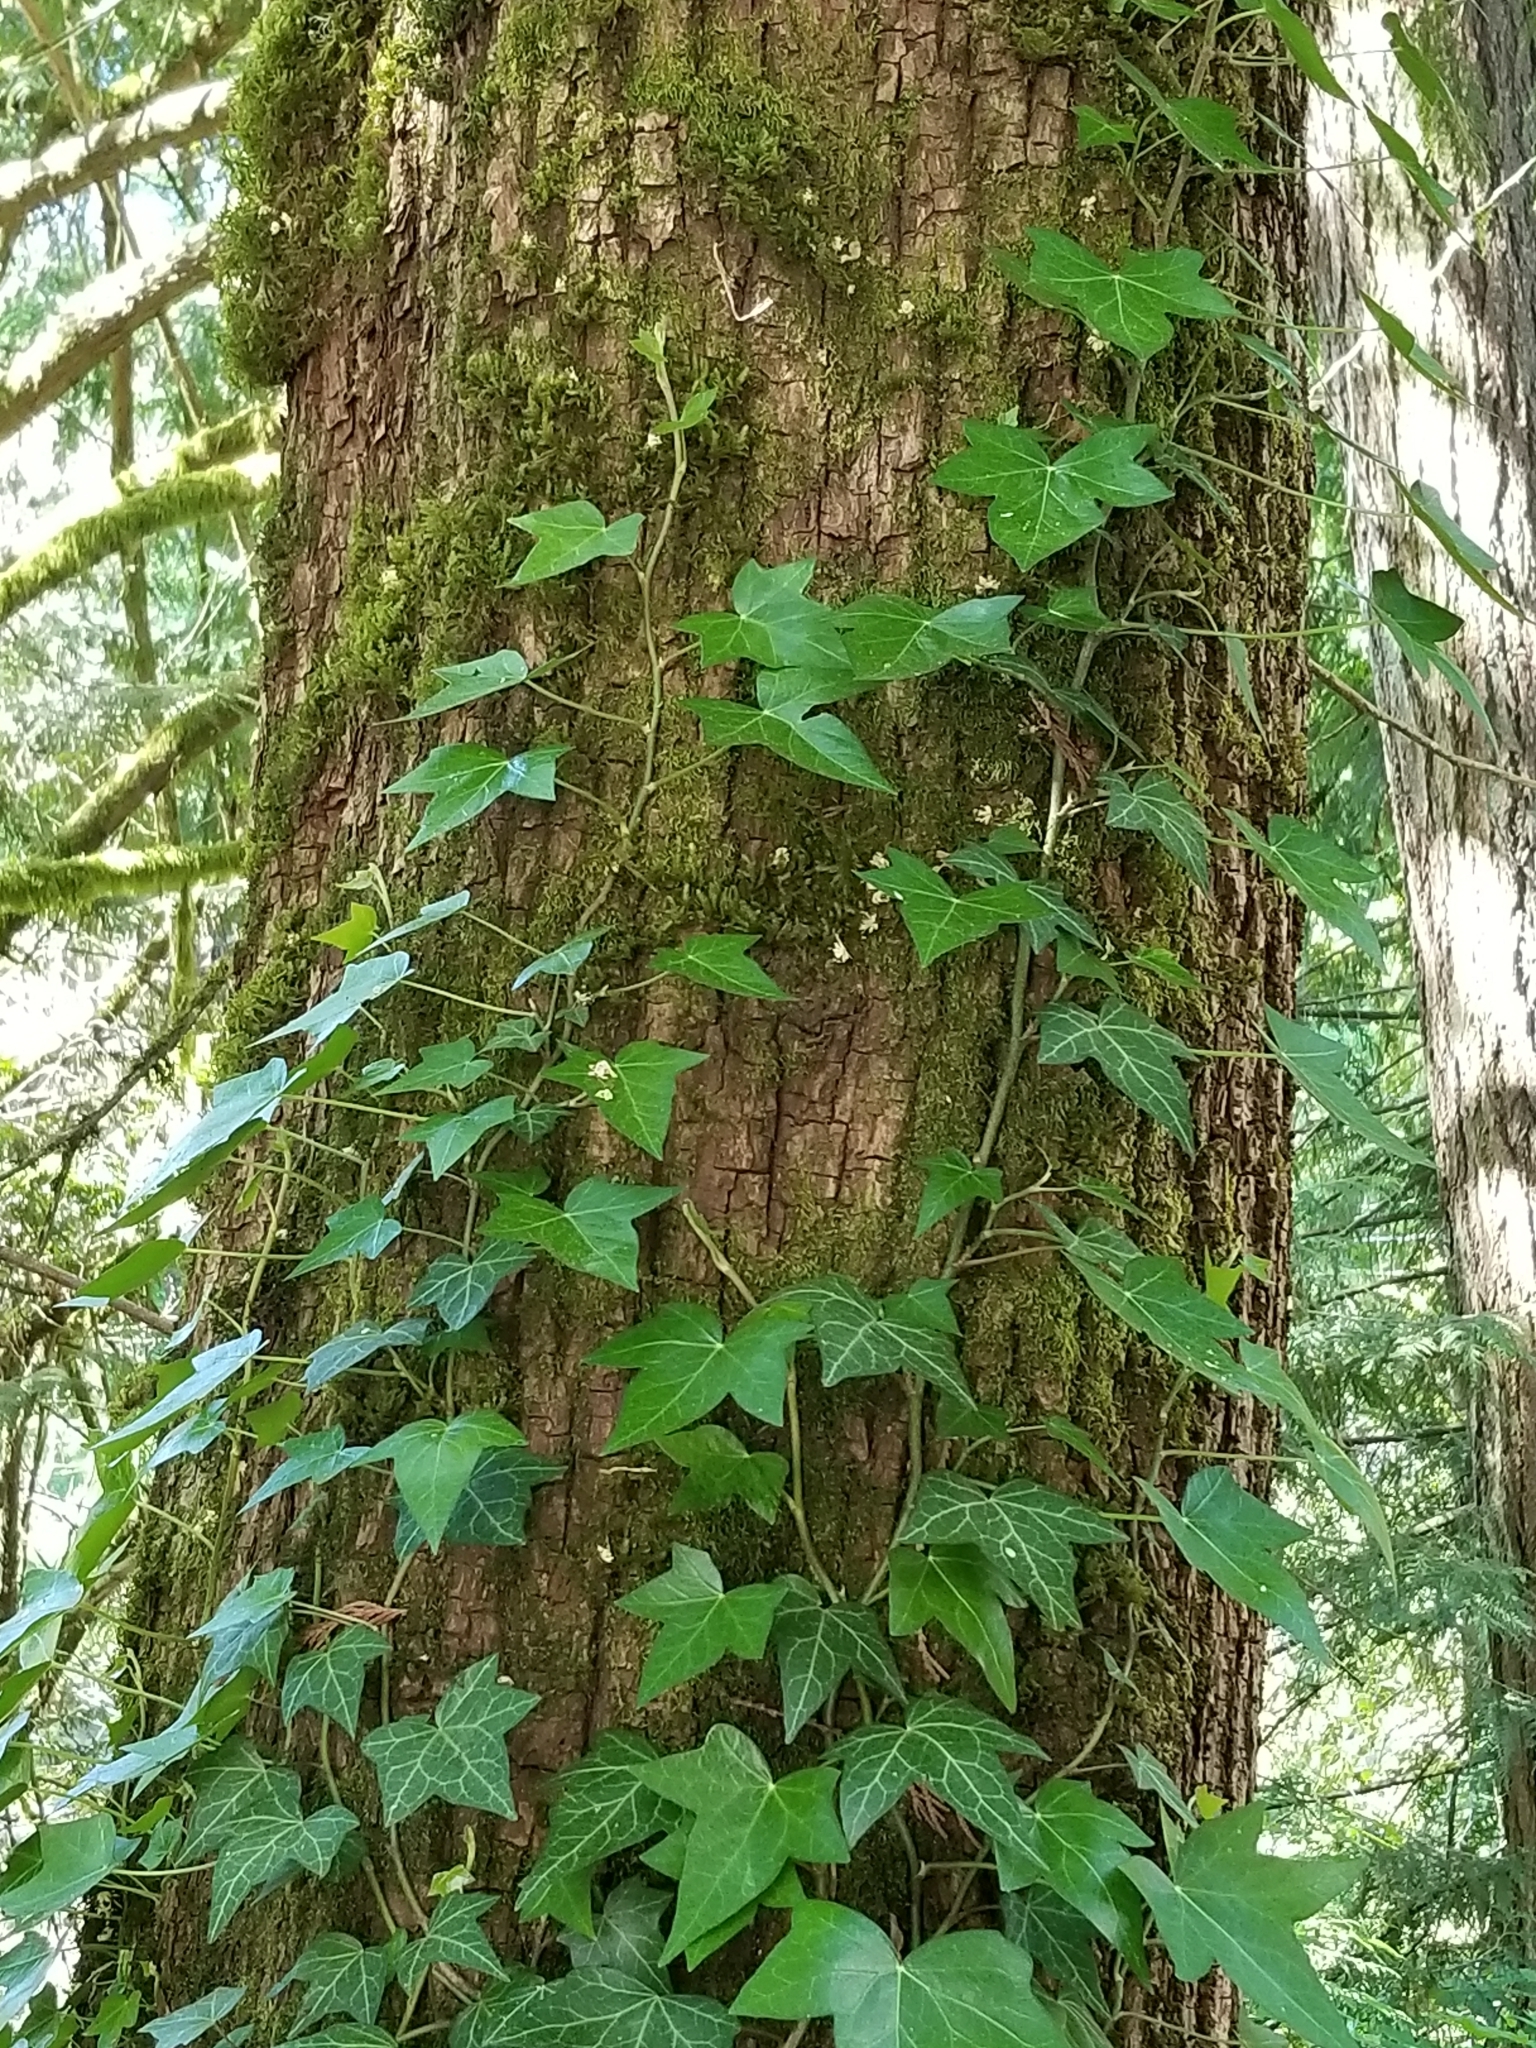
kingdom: Plantae
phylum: Tracheophyta
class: Magnoliopsida
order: Apiales
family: Araliaceae
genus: Hedera
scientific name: Hedera helix
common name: Ivy
